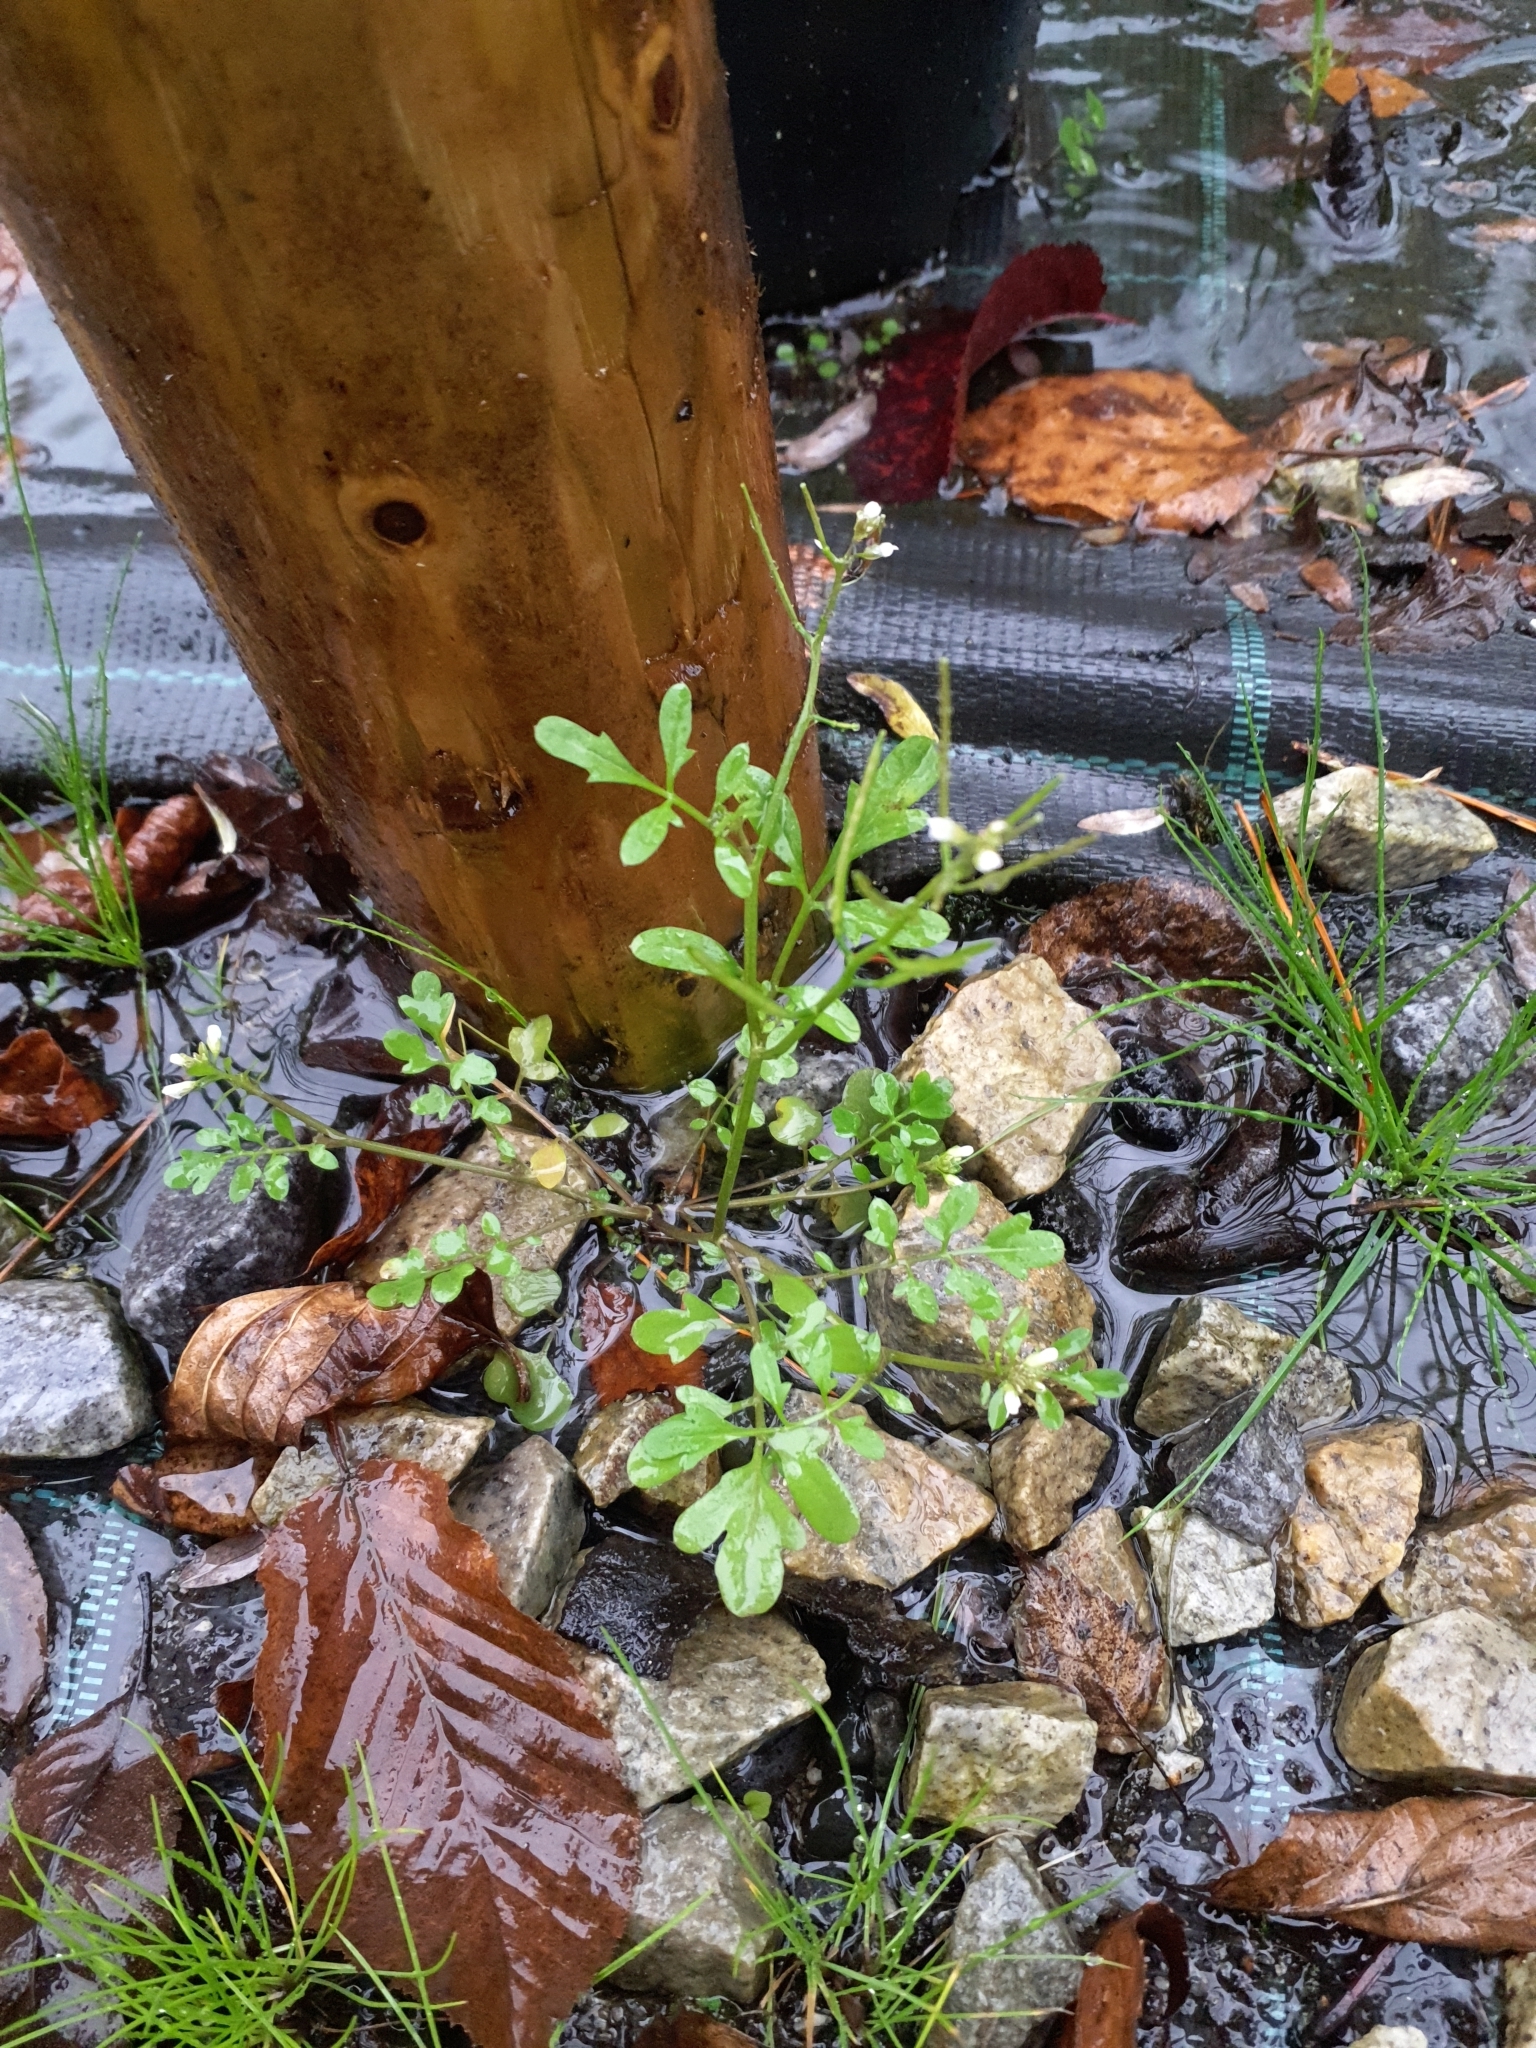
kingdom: Plantae
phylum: Tracheophyta
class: Magnoliopsida
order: Brassicales
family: Brassicaceae
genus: Cardamine
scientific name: Cardamine occulta
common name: Asian wavy bittercress
